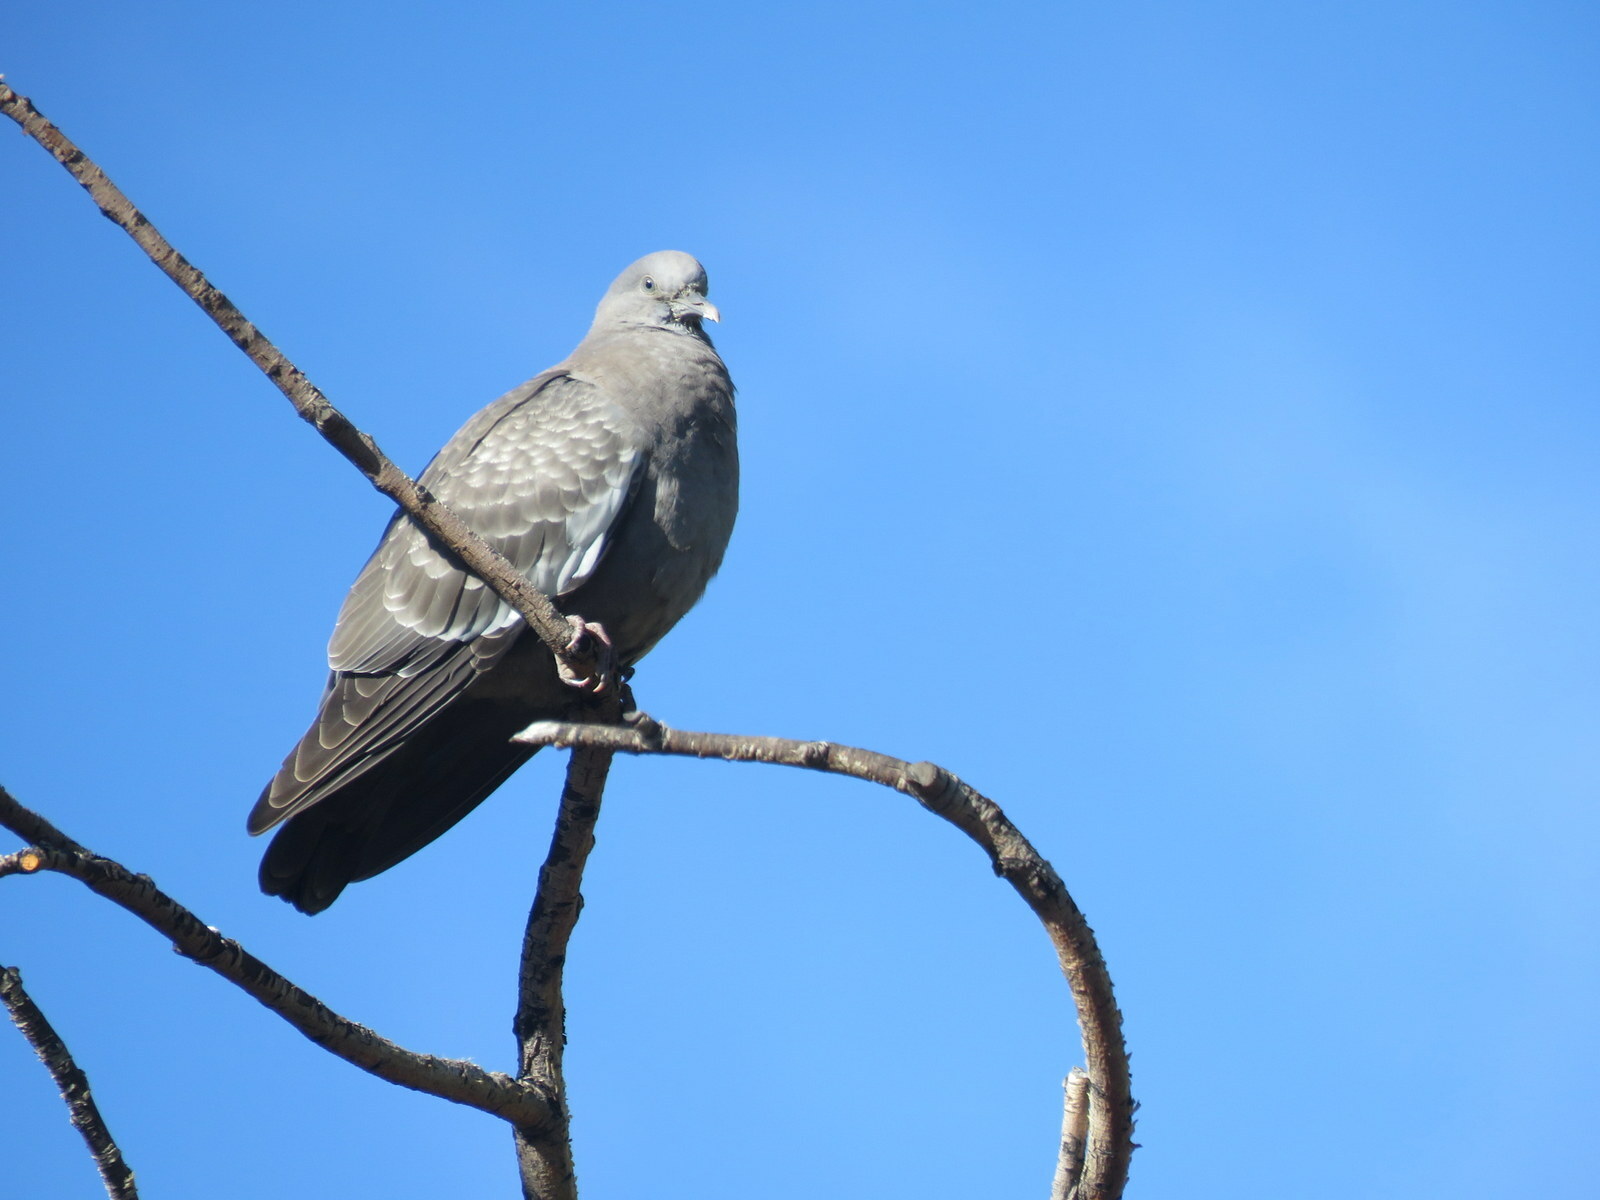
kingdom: Animalia
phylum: Chordata
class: Aves
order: Columbiformes
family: Columbidae
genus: Patagioenas
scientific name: Patagioenas maculosa
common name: Spot-winged pigeon
